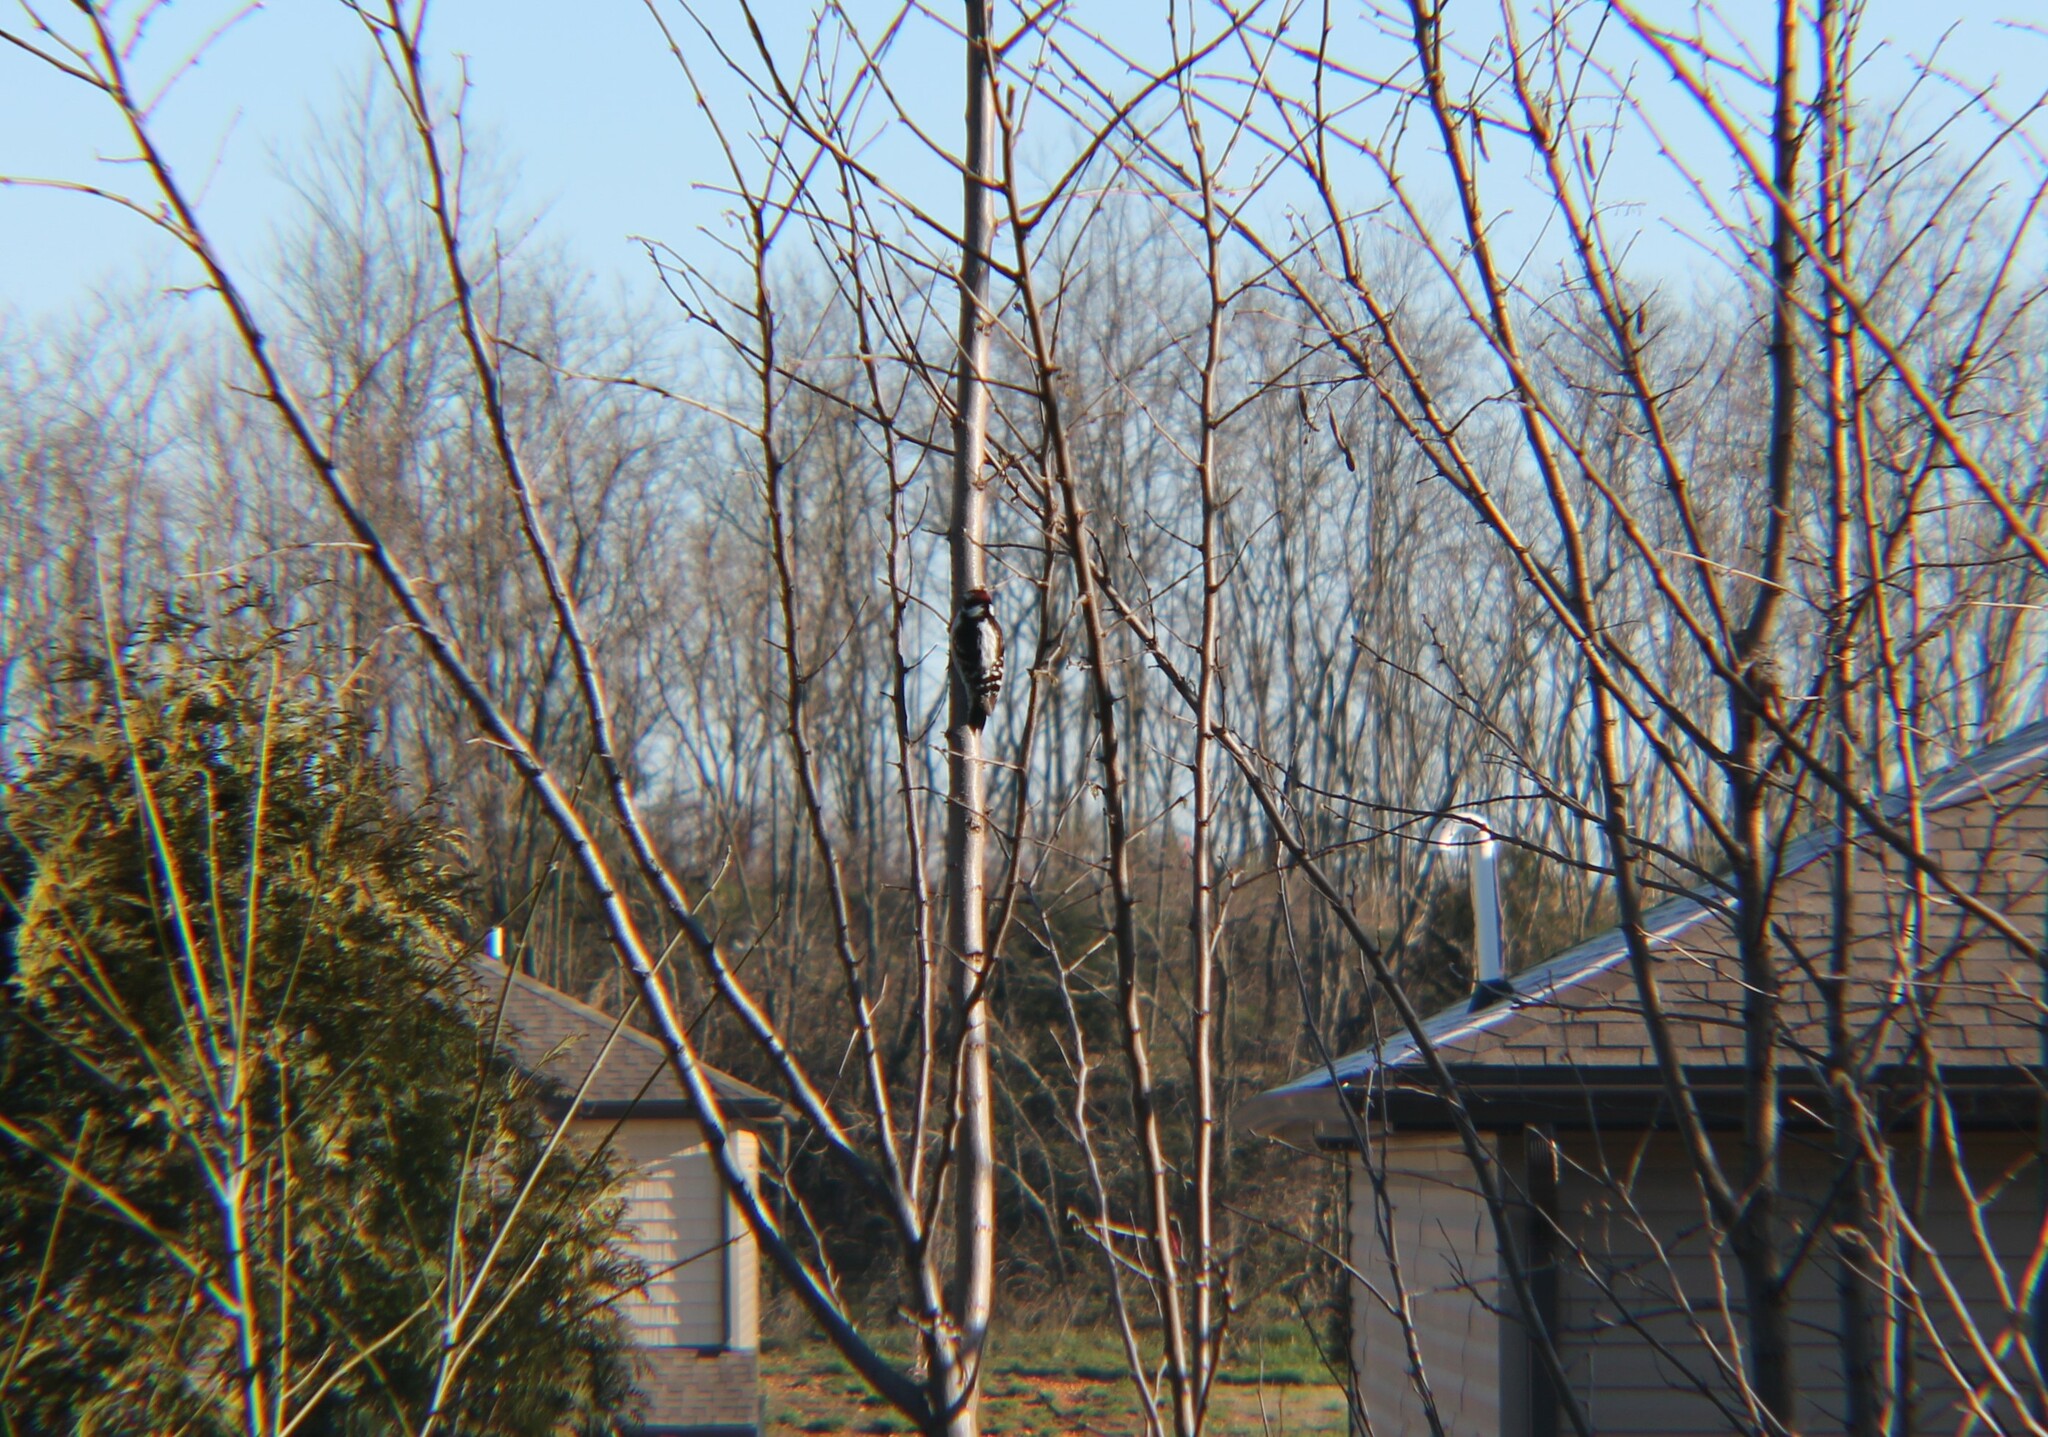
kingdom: Animalia
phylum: Chordata
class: Aves
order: Piciformes
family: Picidae
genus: Dryobates
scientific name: Dryobates pubescens
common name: Downy woodpecker
